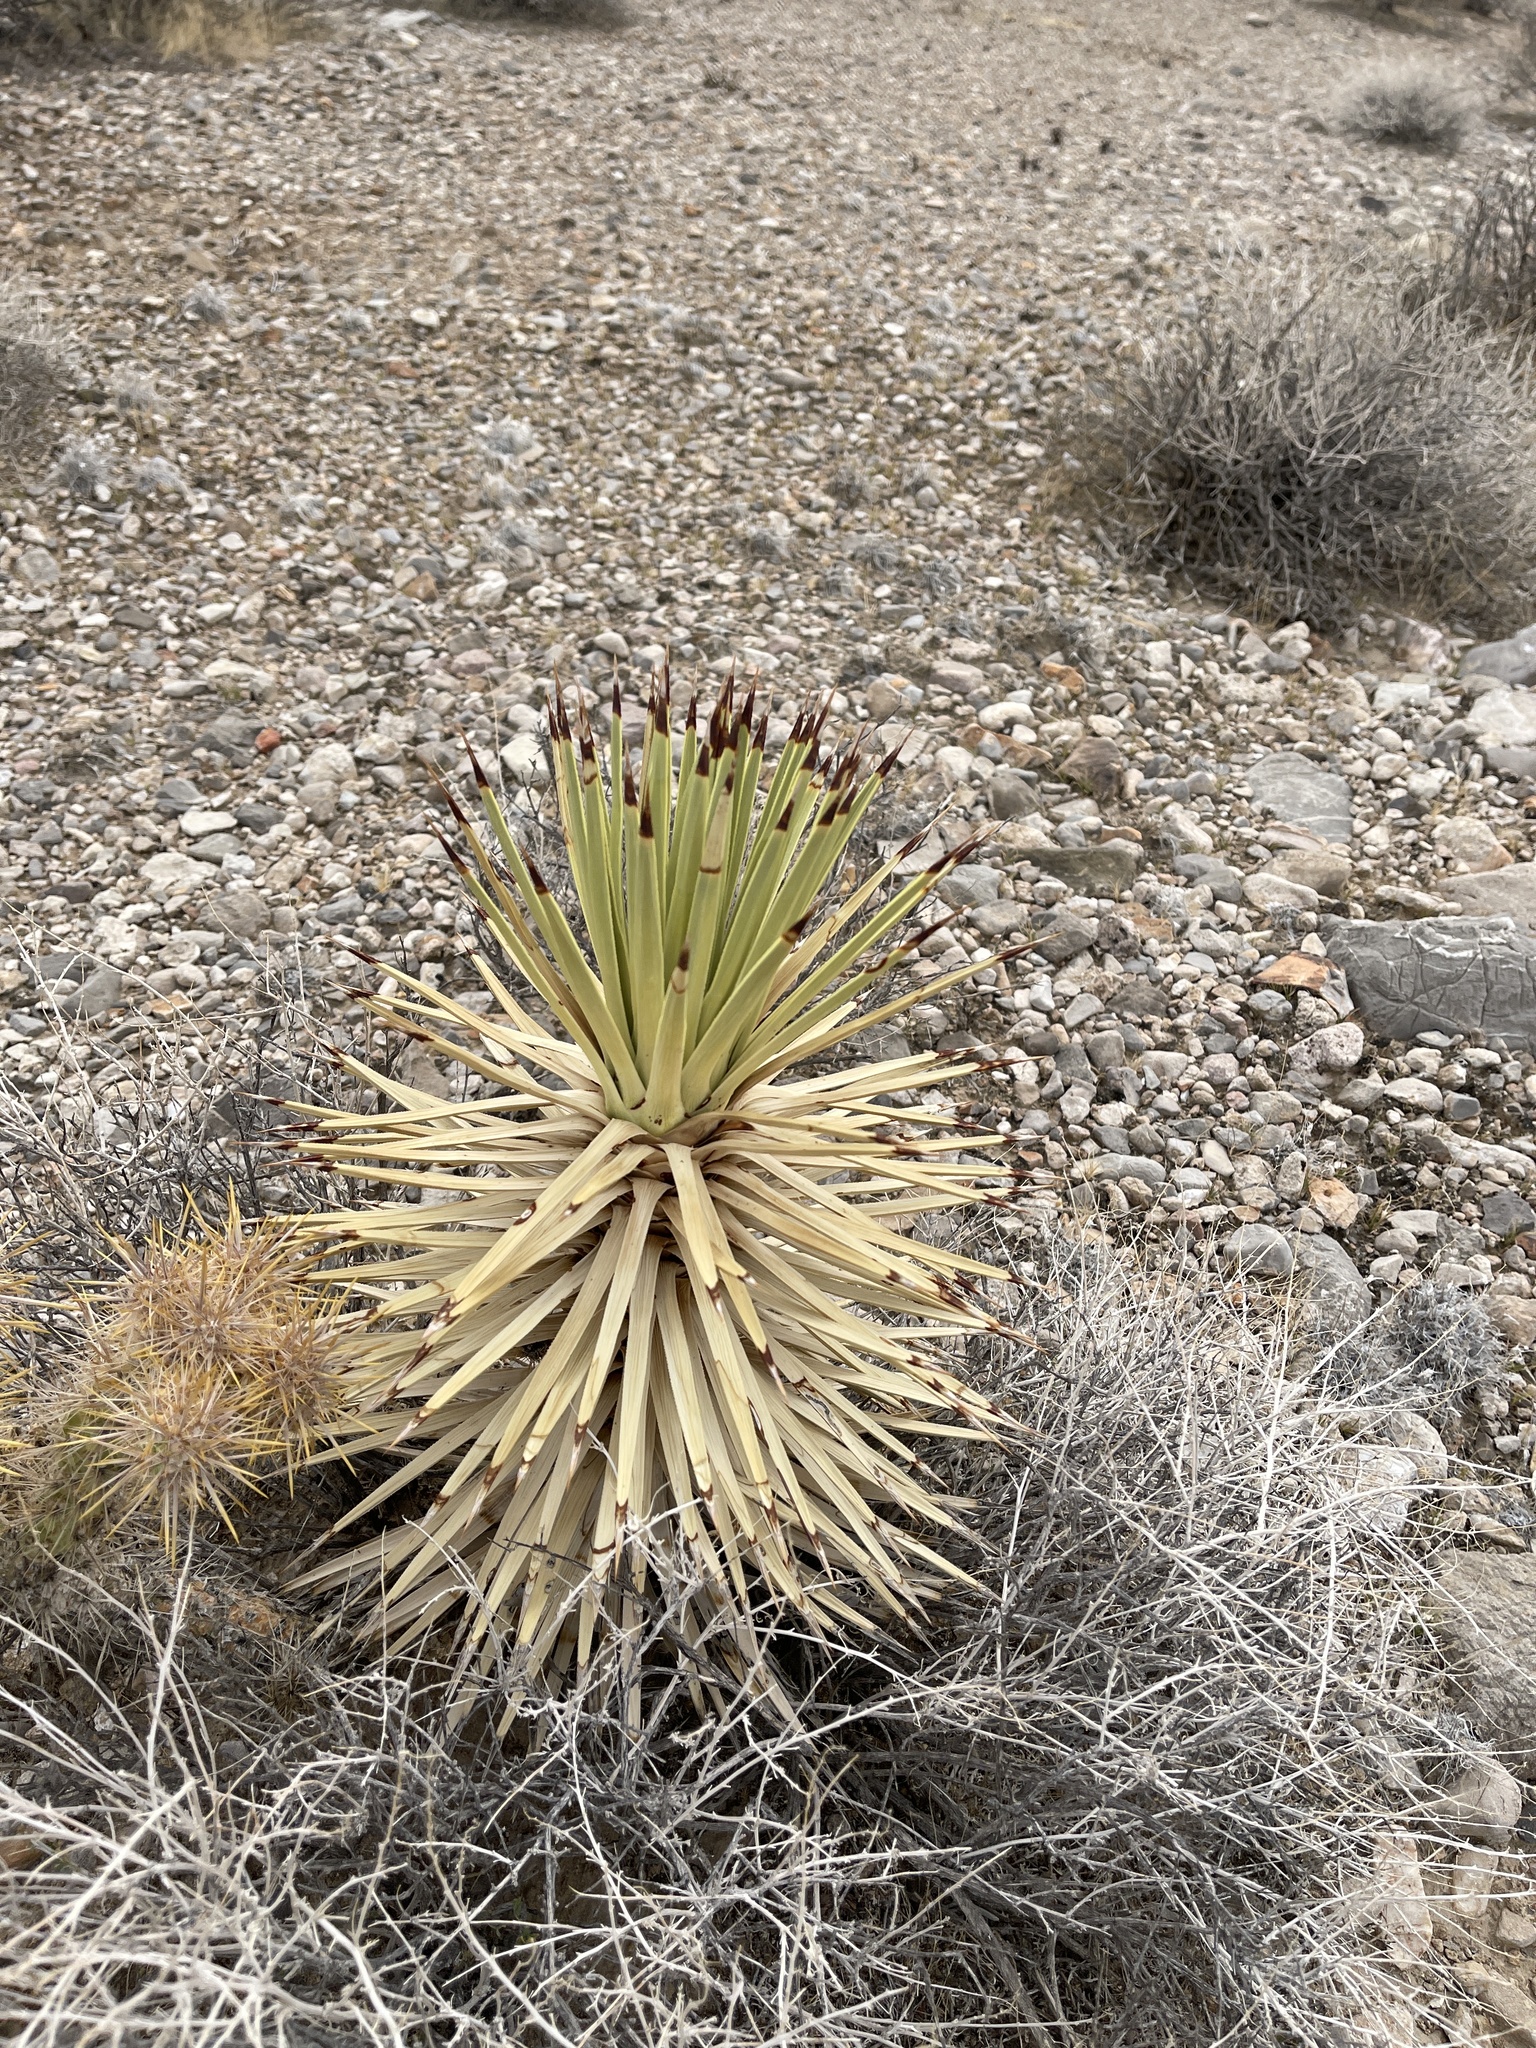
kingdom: Plantae
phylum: Tracheophyta
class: Liliopsida
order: Asparagales
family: Asparagaceae
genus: Yucca
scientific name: Yucca brevifolia
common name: Joshua tree
